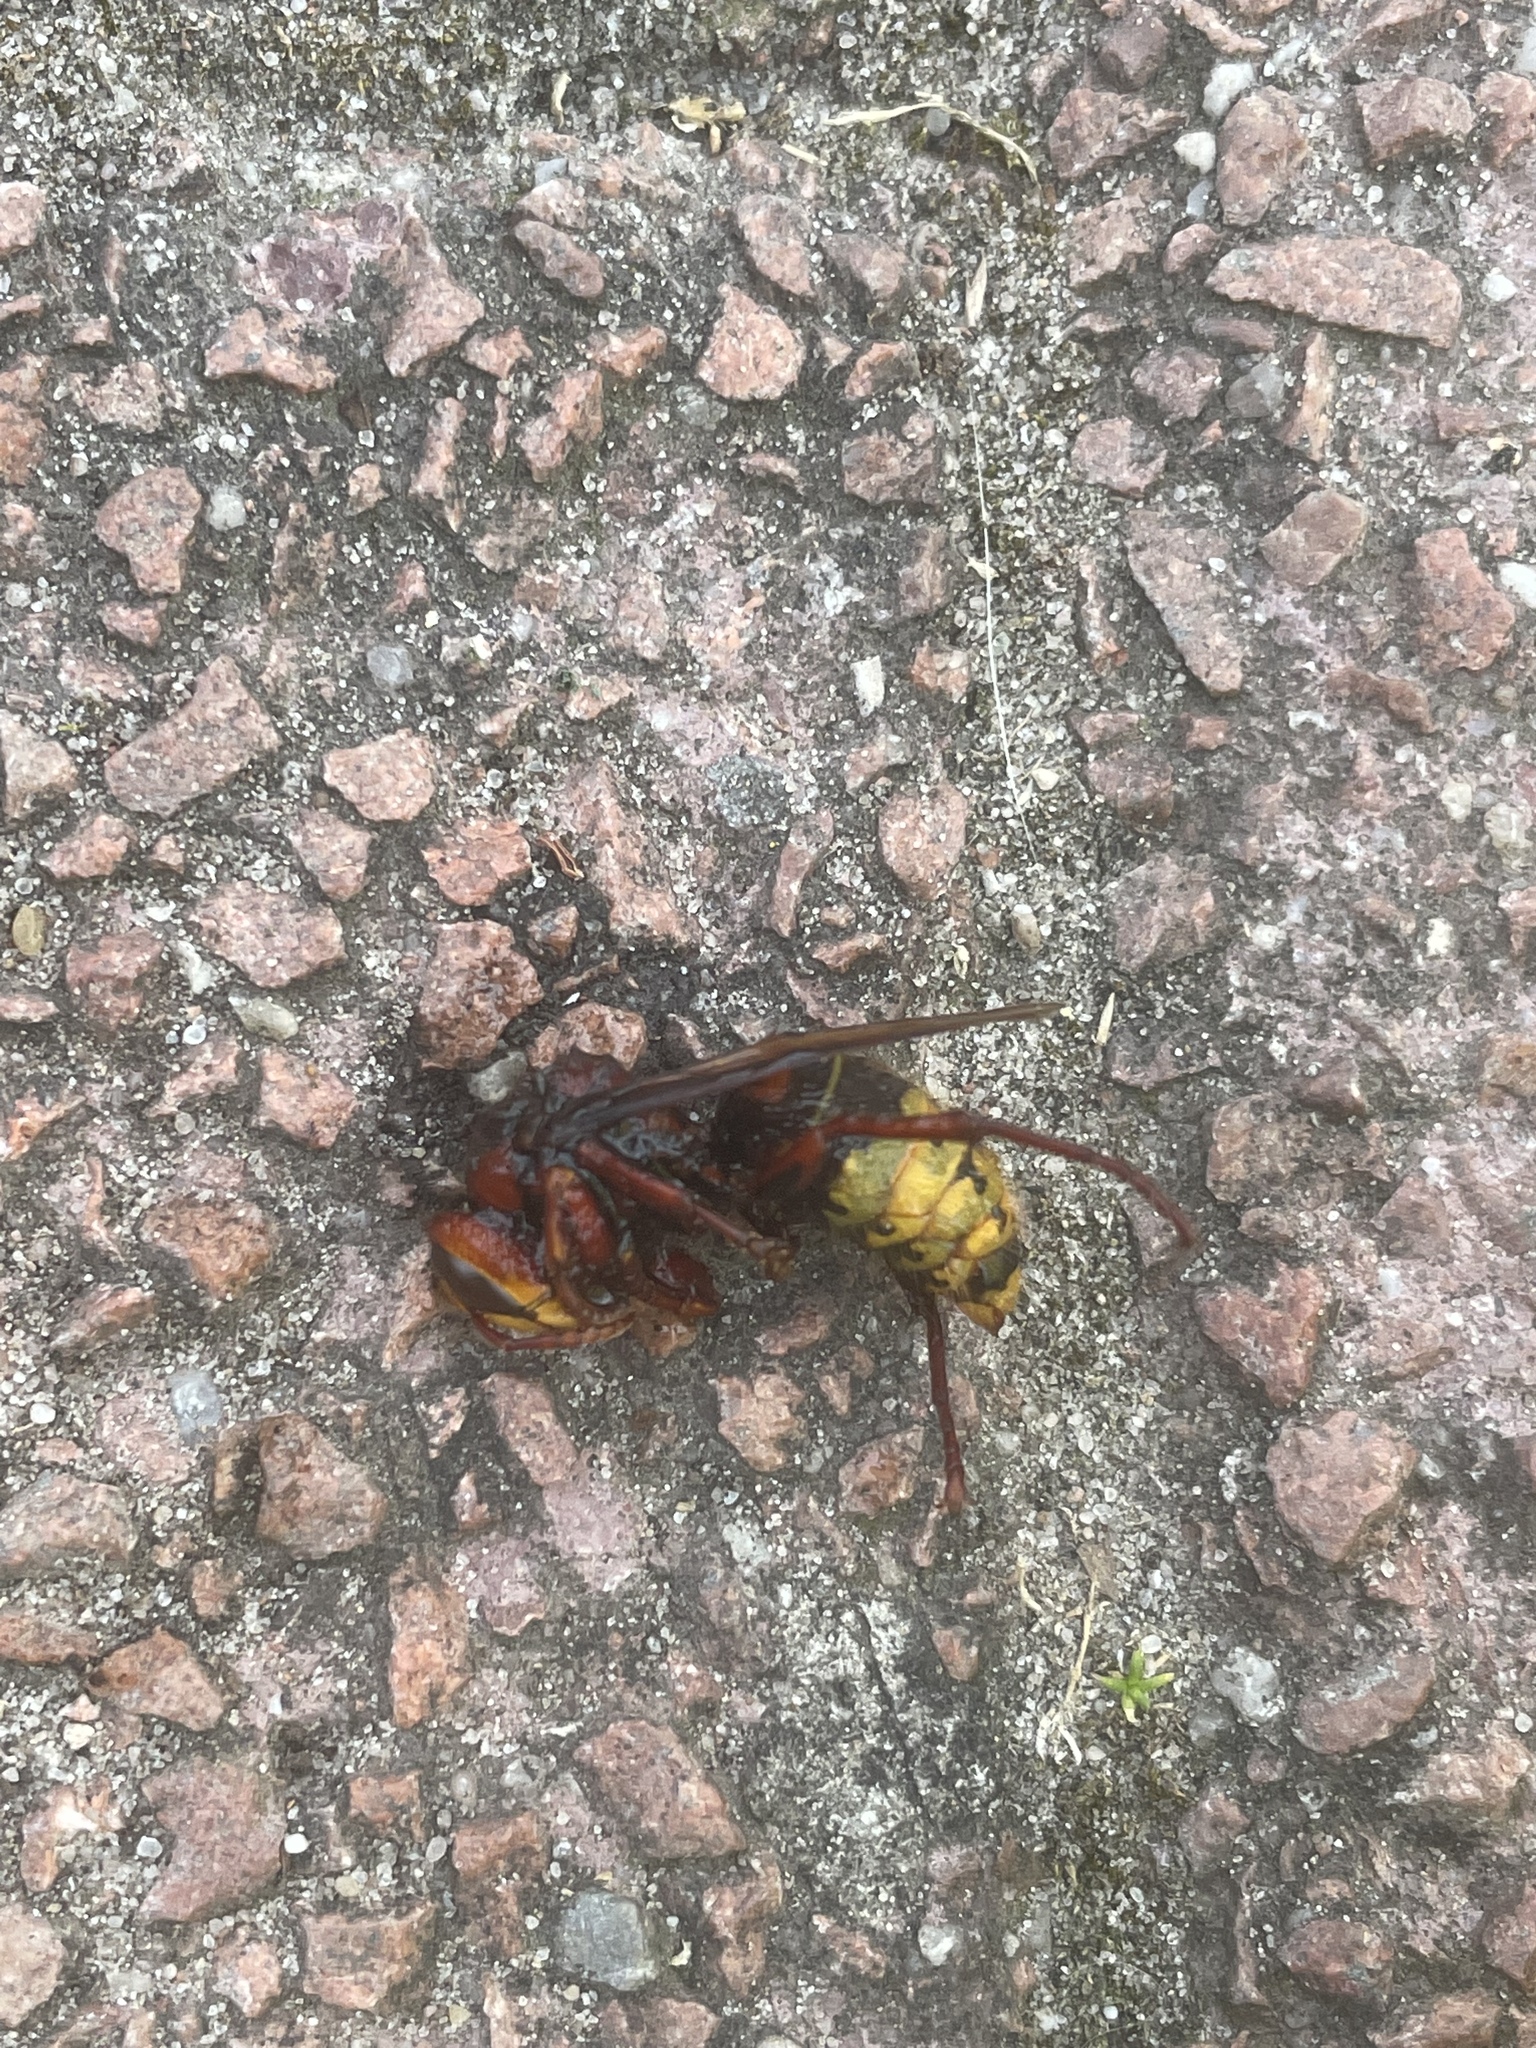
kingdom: Animalia
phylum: Arthropoda
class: Insecta
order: Hymenoptera
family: Vespidae
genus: Vespa
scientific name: Vespa crabro
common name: Hornet
